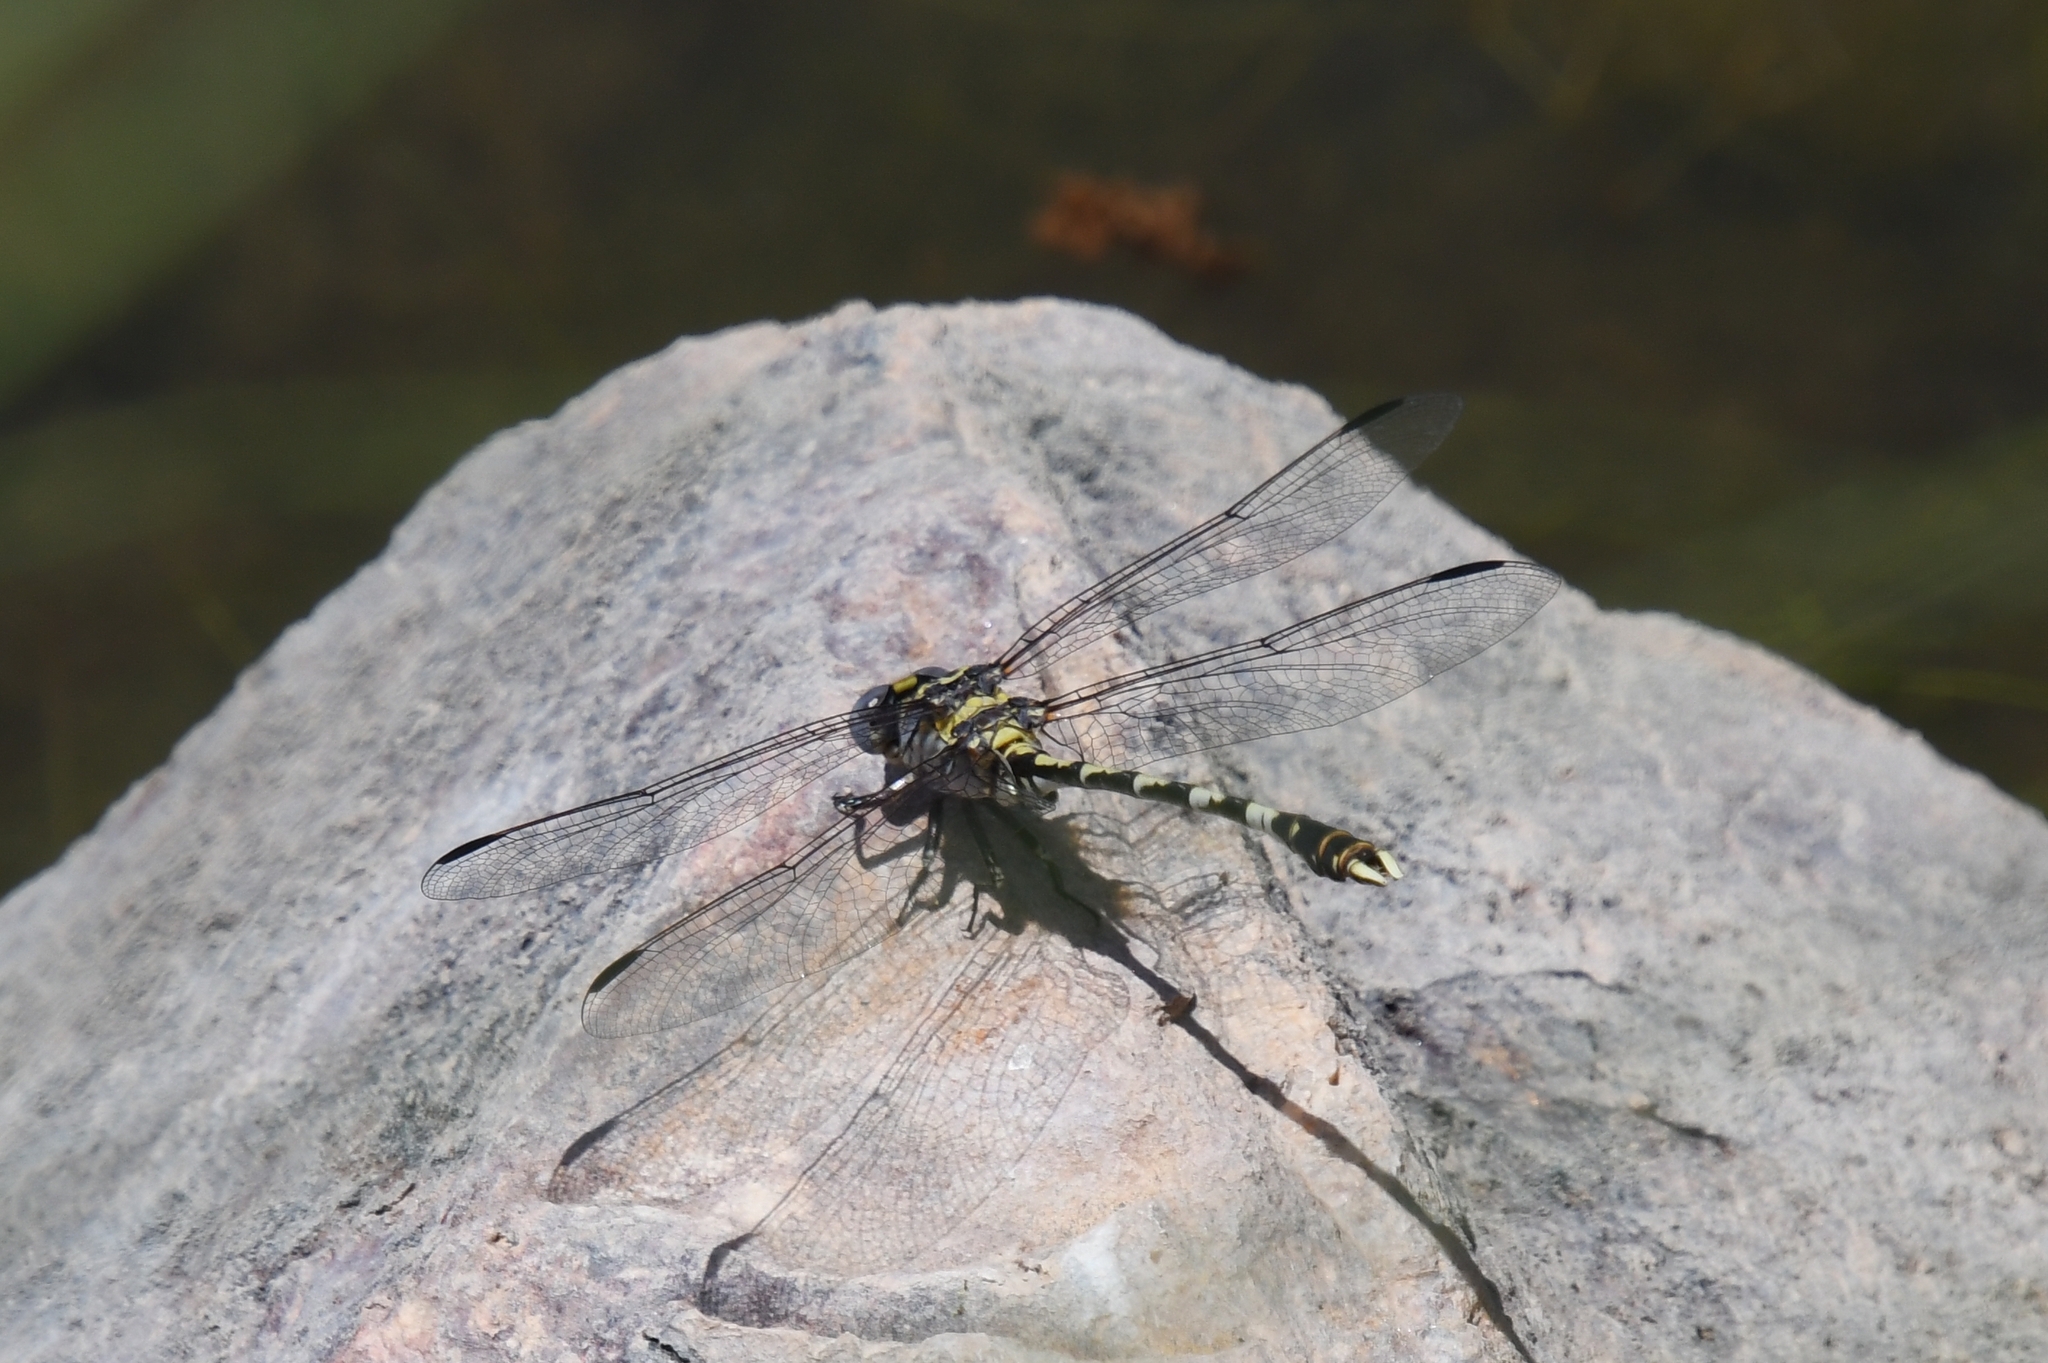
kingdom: Animalia
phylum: Arthropoda
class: Insecta
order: Odonata
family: Gomphidae
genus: Progomphus
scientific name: Progomphus borealis
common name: Gray sanddragon
